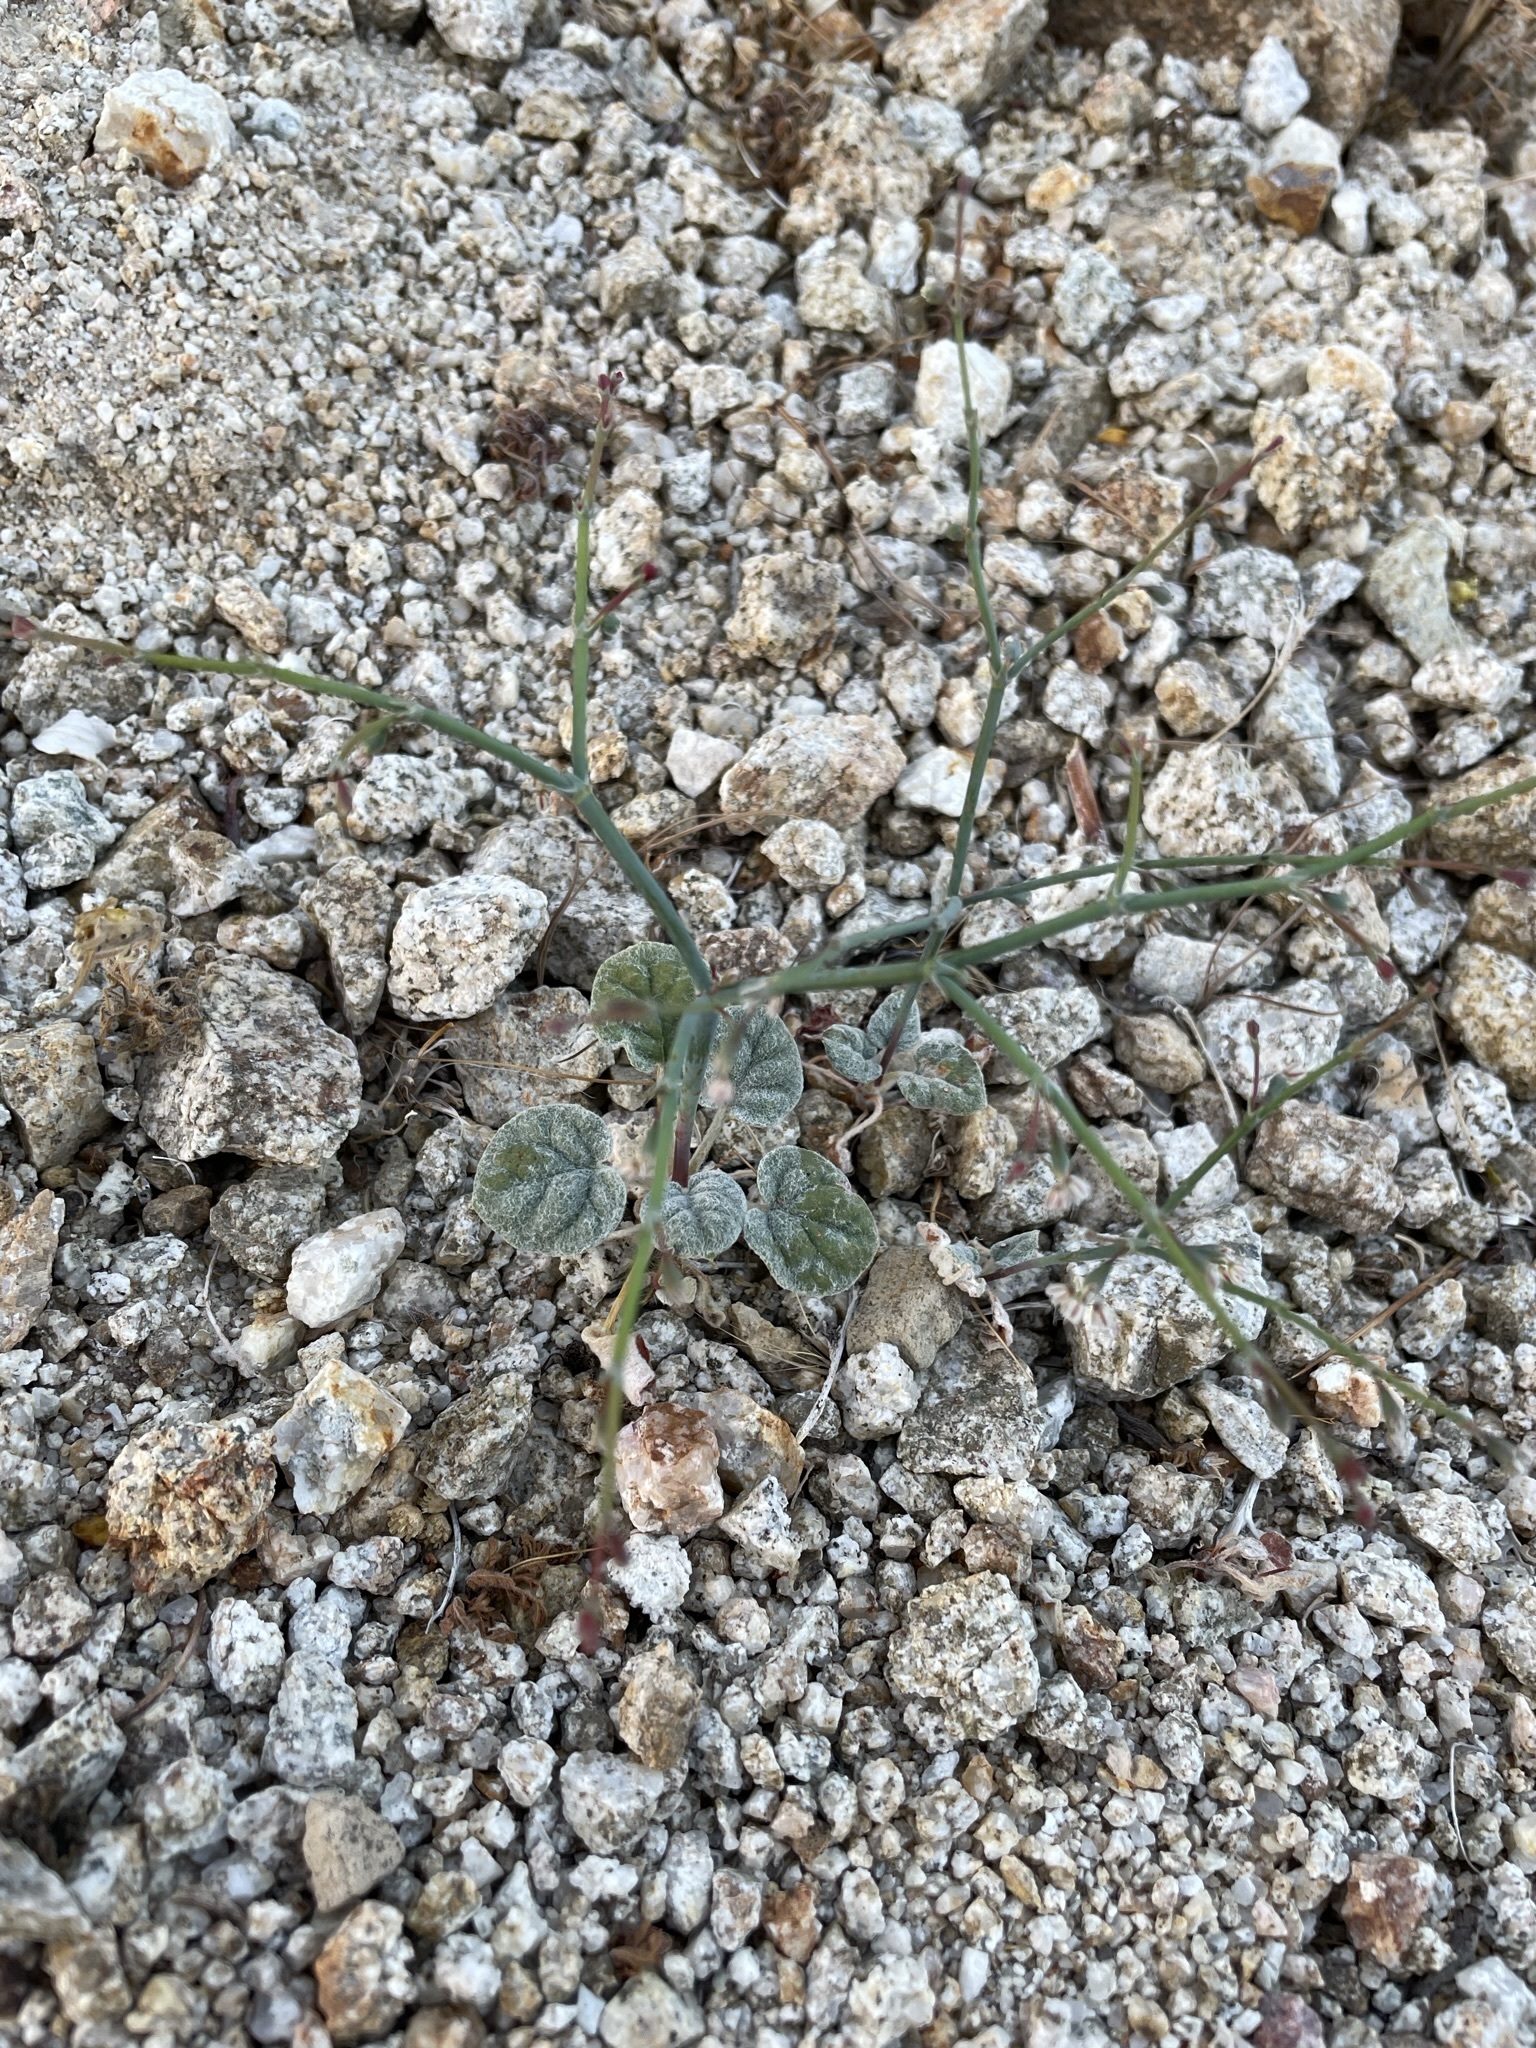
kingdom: Plantae
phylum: Tracheophyta
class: Magnoliopsida
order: Caryophyllales
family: Polygonaceae
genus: Eriogonum
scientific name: Eriogonum deflexum
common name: Skeleton-weed
